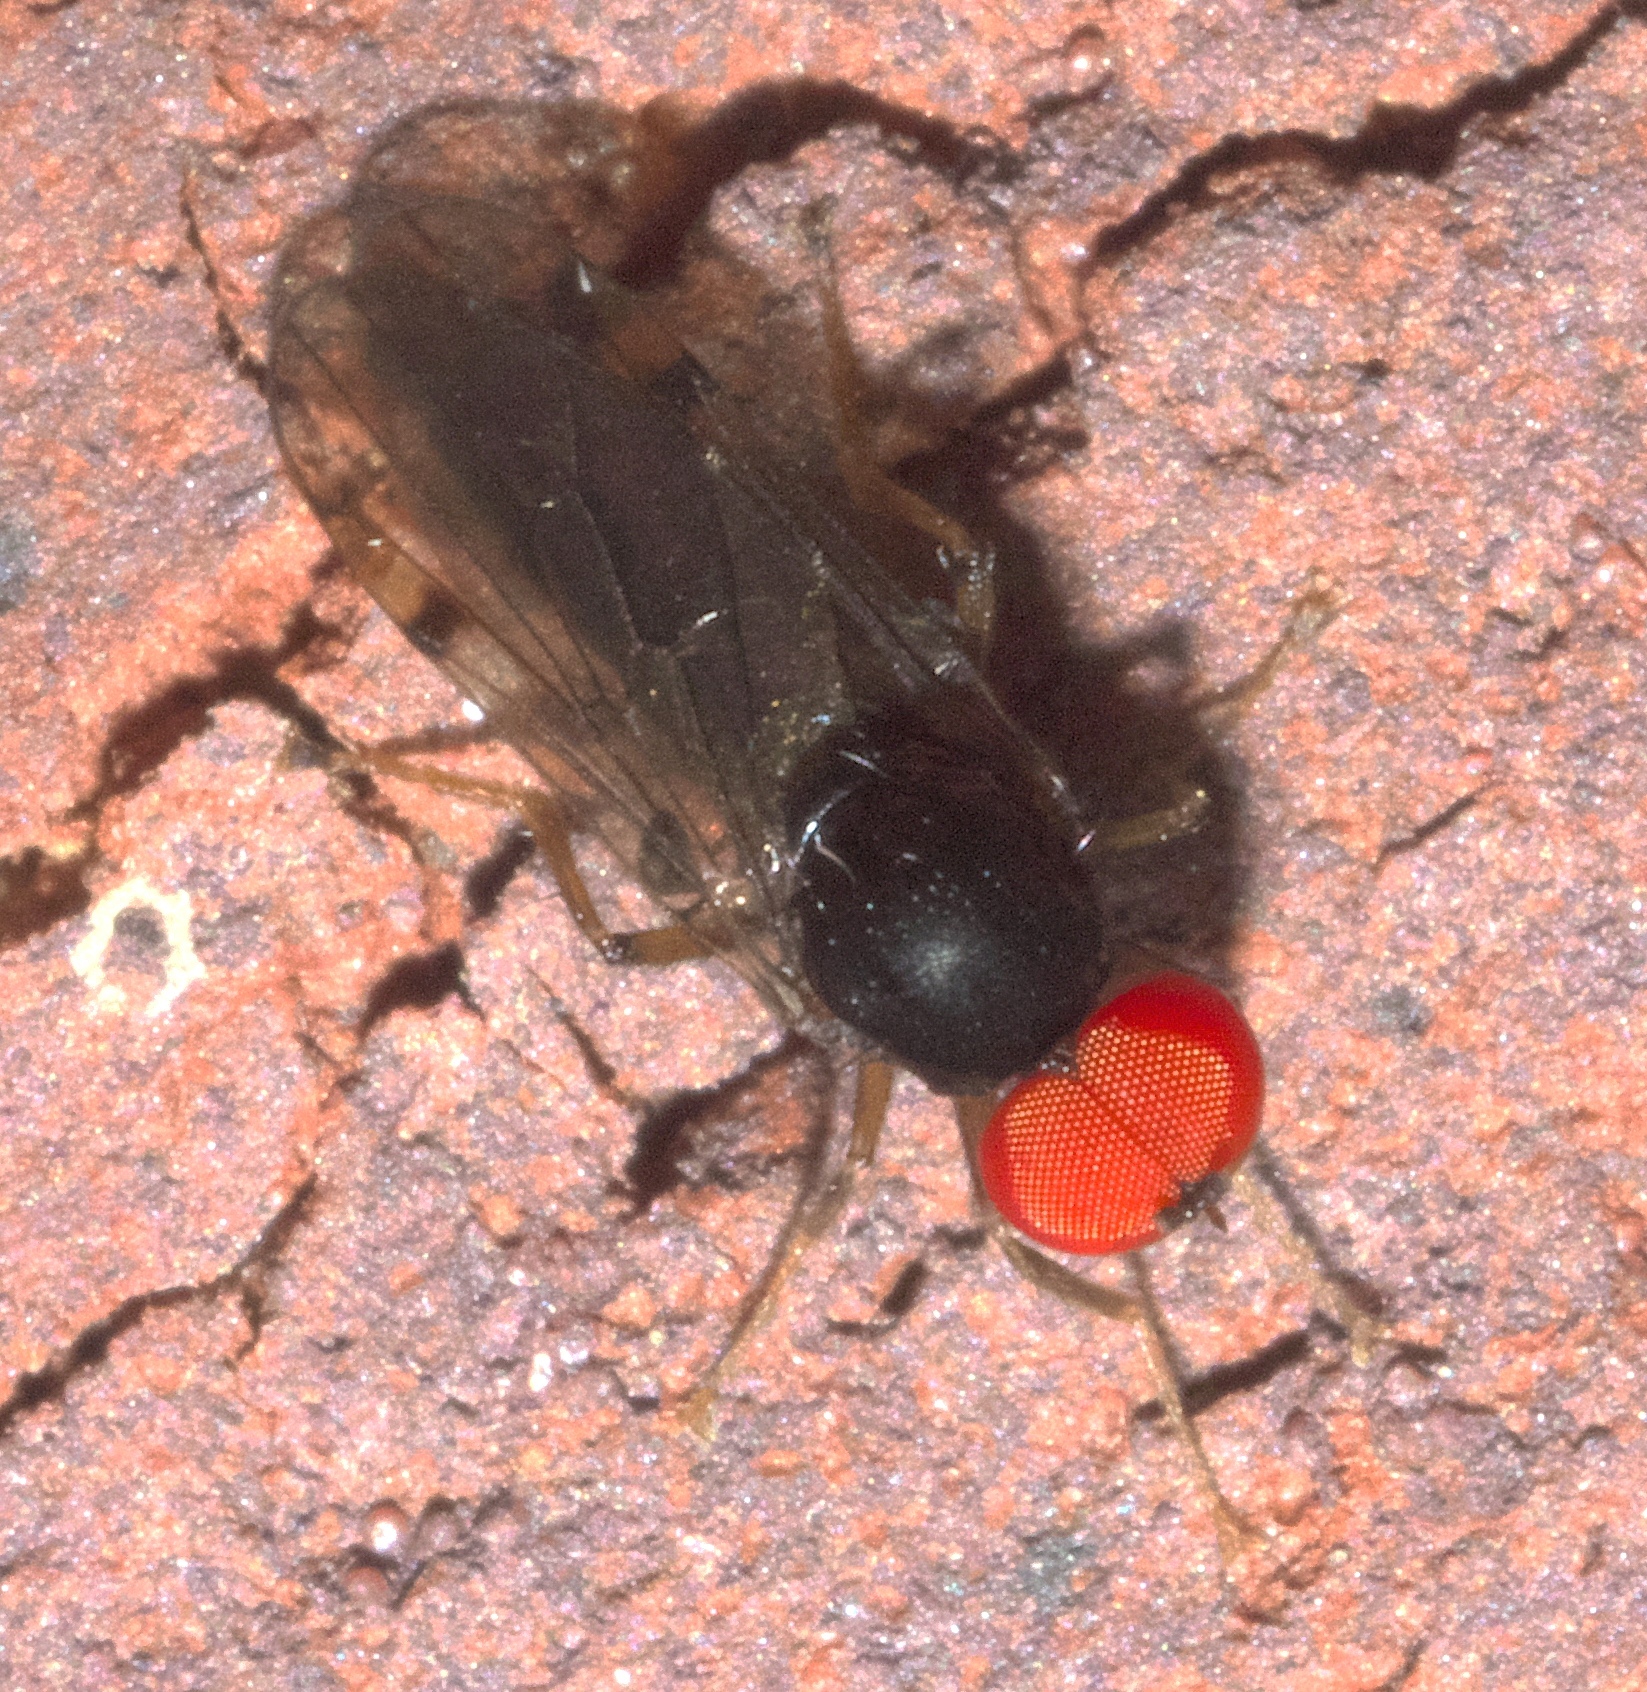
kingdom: Animalia
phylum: Arthropoda
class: Insecta
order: Diptera
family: Hybotidae
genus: Syneches
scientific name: Syneches simplex
